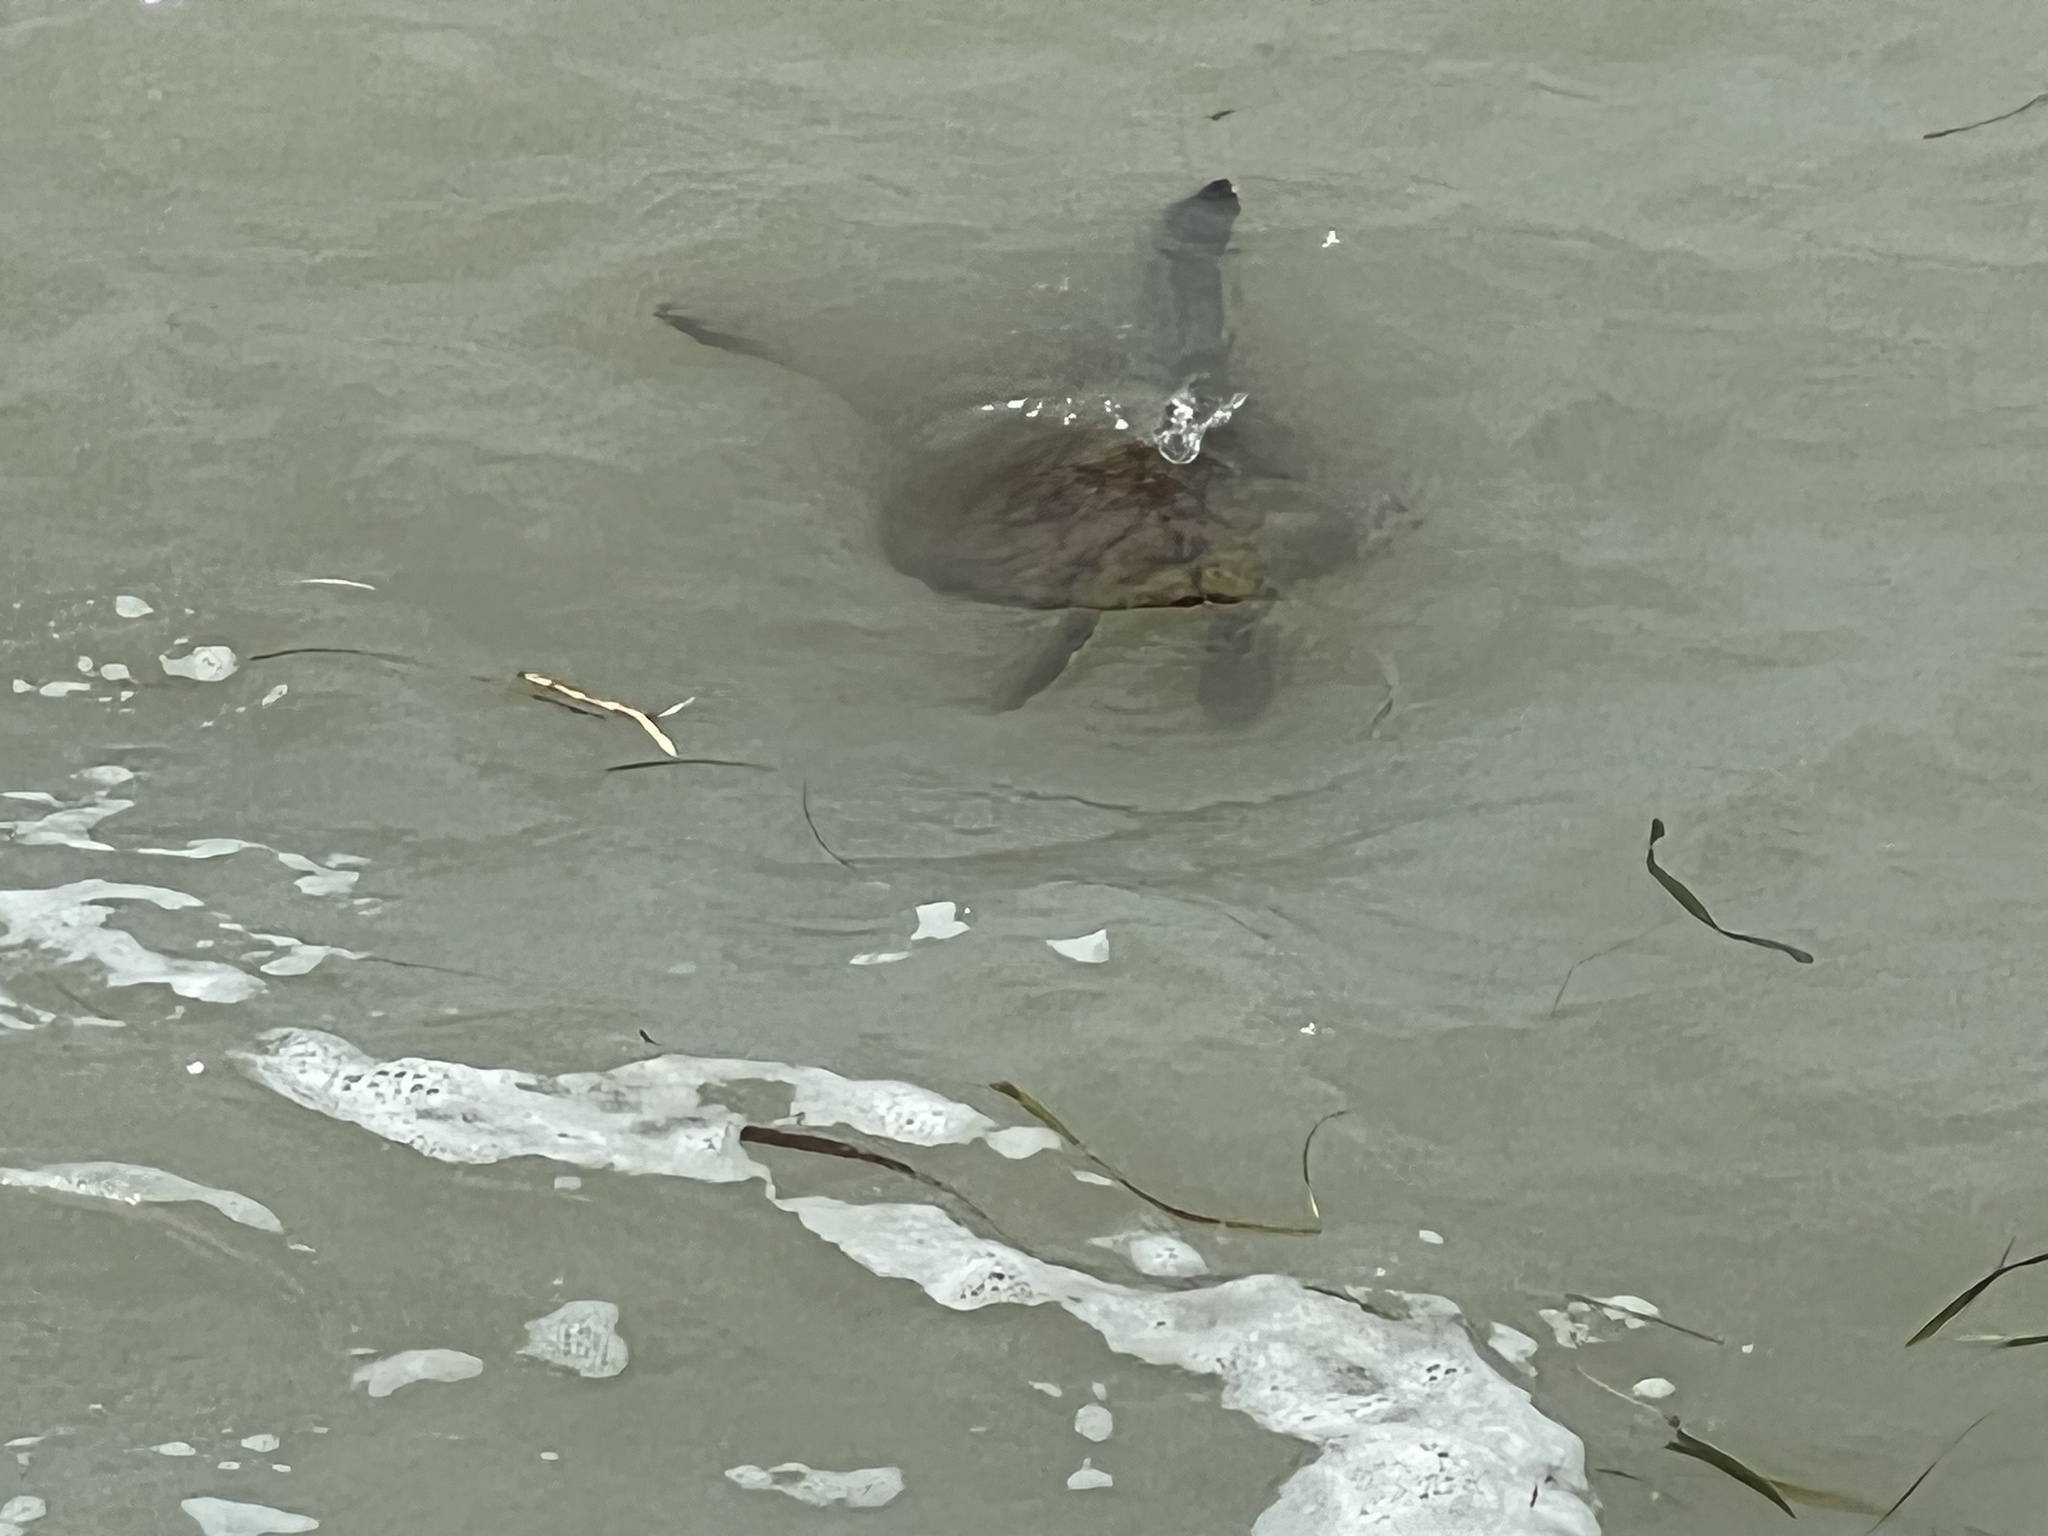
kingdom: Animalia
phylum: Chordata
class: Testudines
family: Cheloniidae
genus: Chelonia
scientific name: Chelonia mydas
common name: Green turtle
